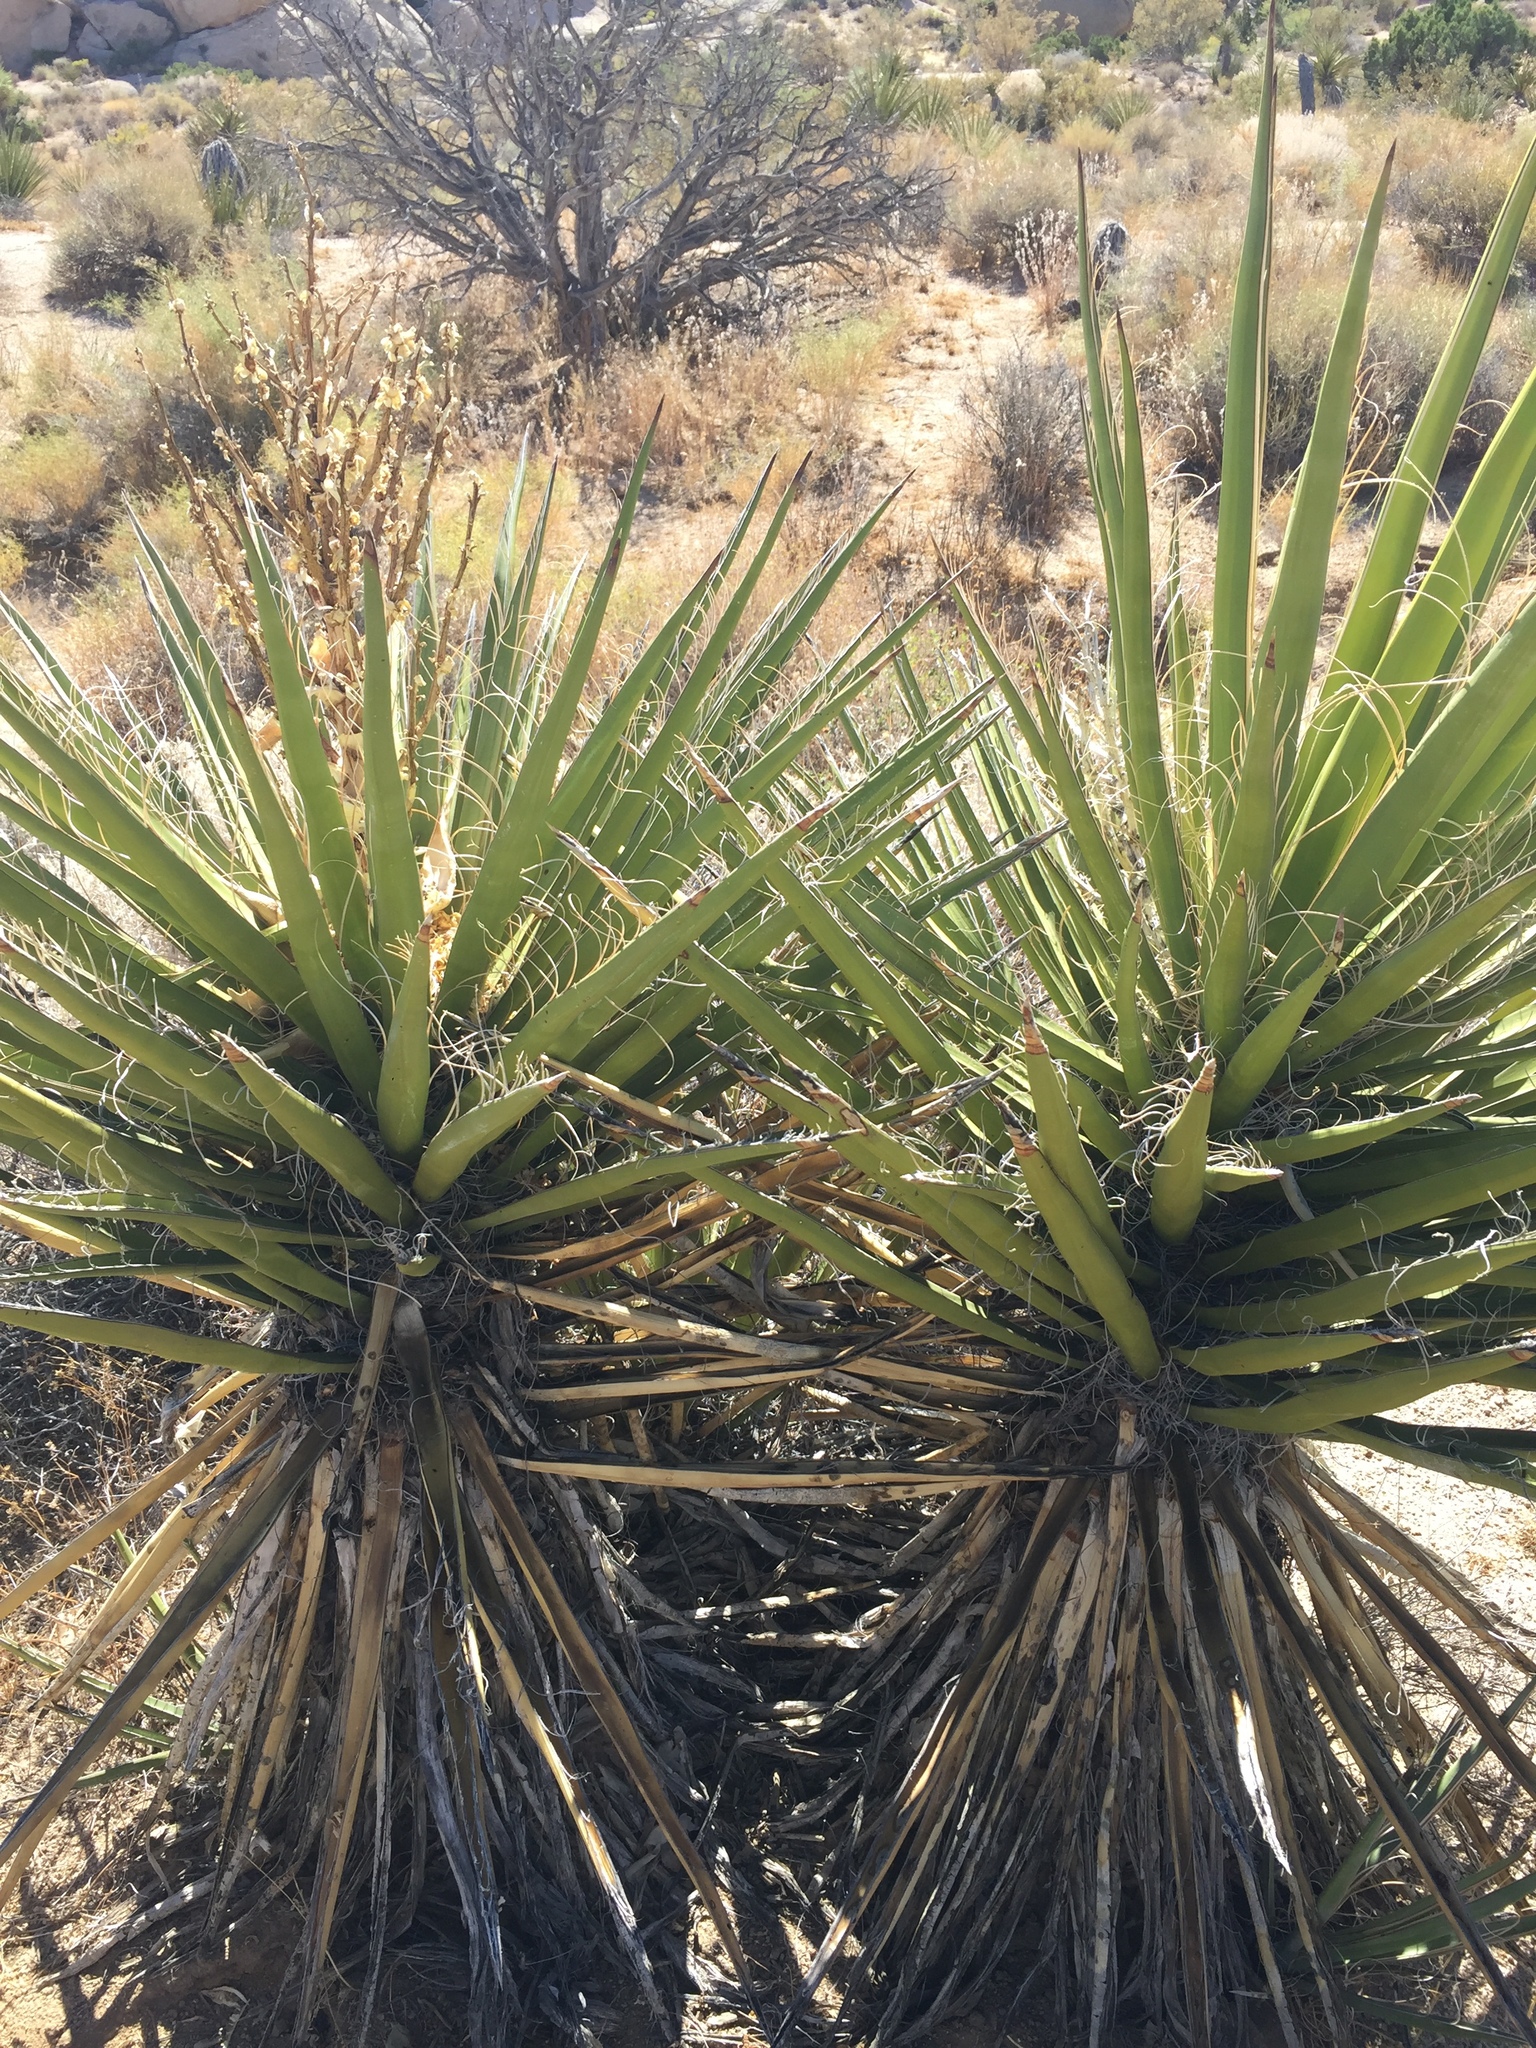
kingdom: Plantae
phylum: Tracheophyta
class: Liliopsida
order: Asparagales
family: Asparagaceae
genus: Yucca
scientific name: Yucca schidigera
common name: Mojave yucca
